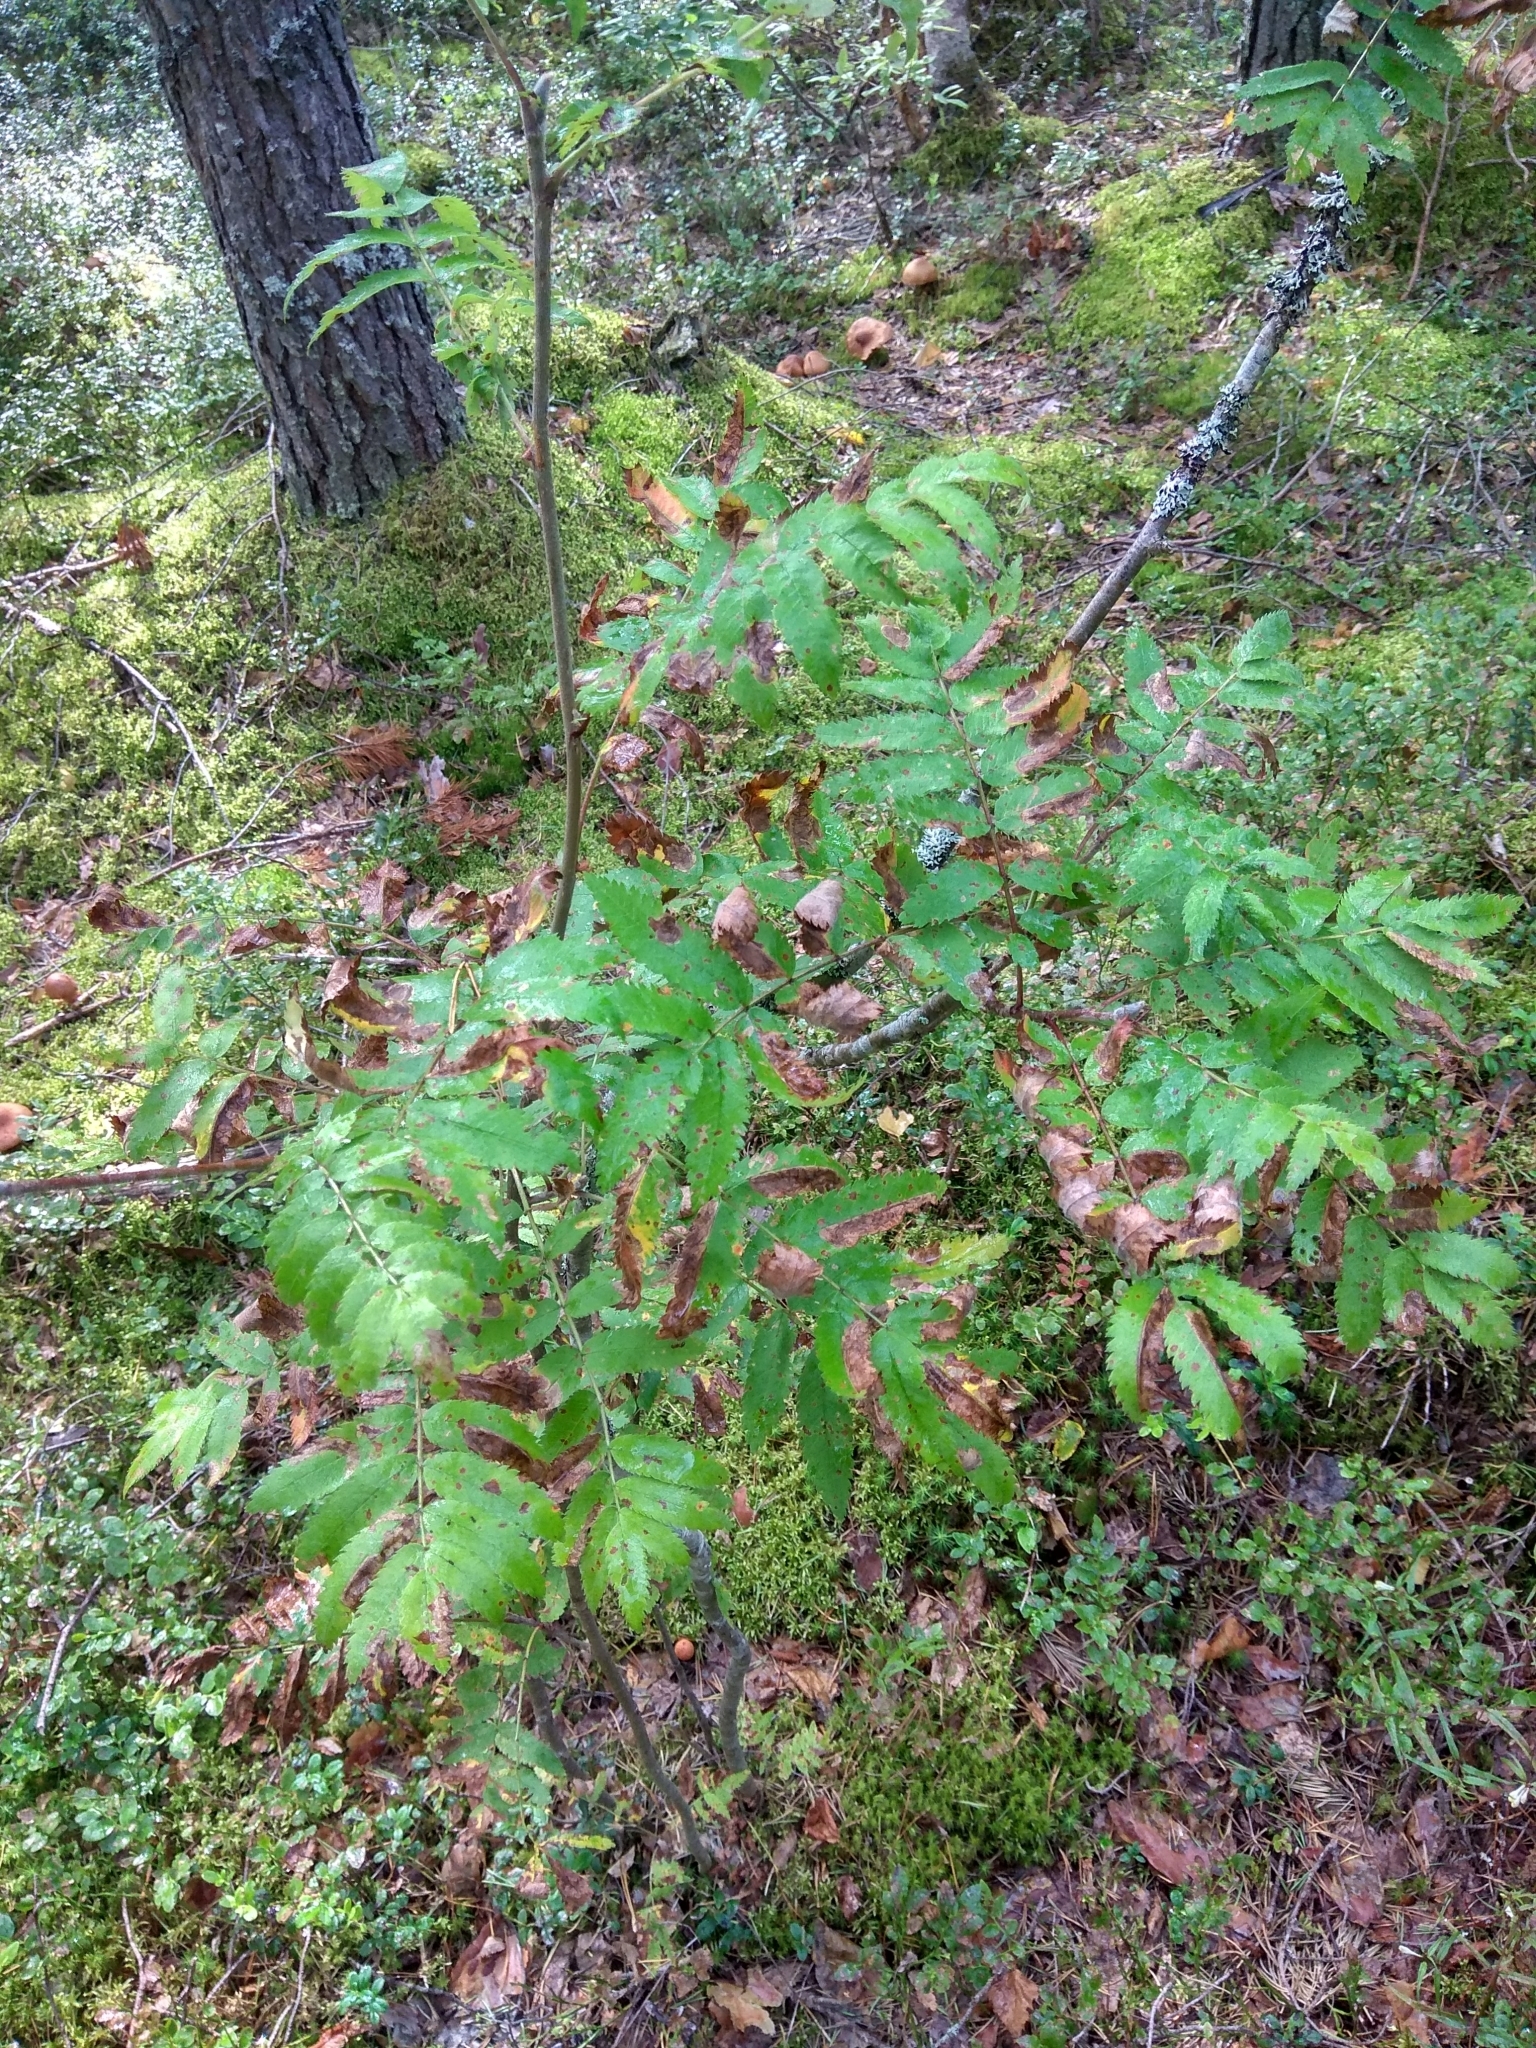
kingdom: Plantae
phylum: Tracheophyta
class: Magnoliopsida
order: Rosales
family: Rosaceae
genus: Sorbus
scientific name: Sorbus aucuparia
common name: Rowan
